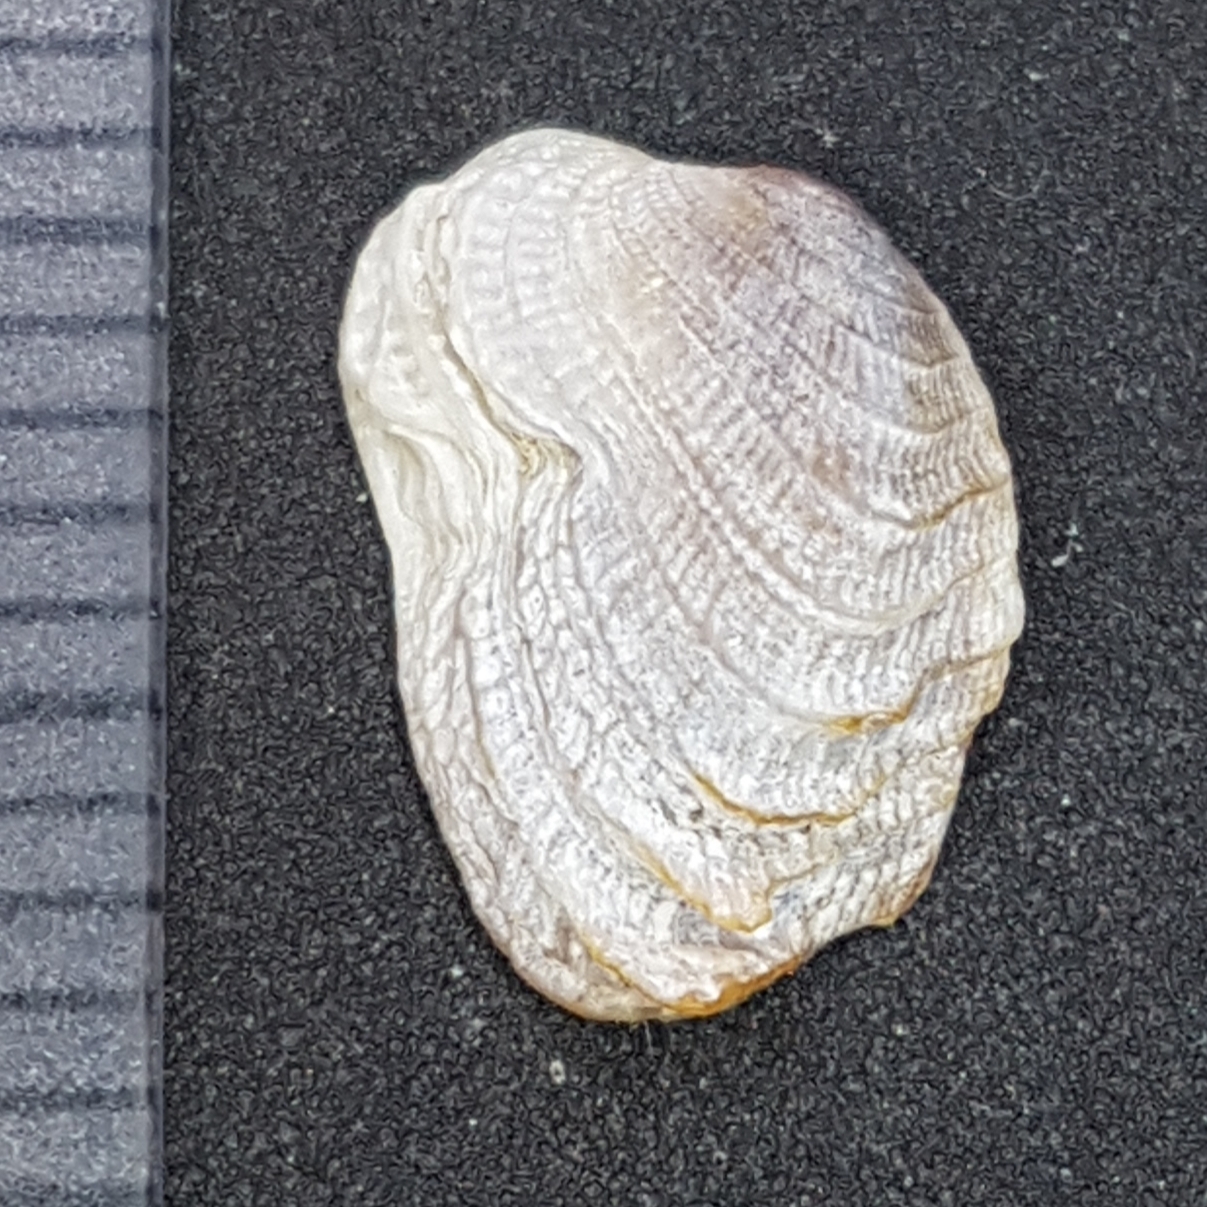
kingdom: Animalia
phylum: Mollusca
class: Bivalvia
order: Venerida
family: Veneridae
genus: Irus
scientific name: Irus irus
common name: Irus clam
